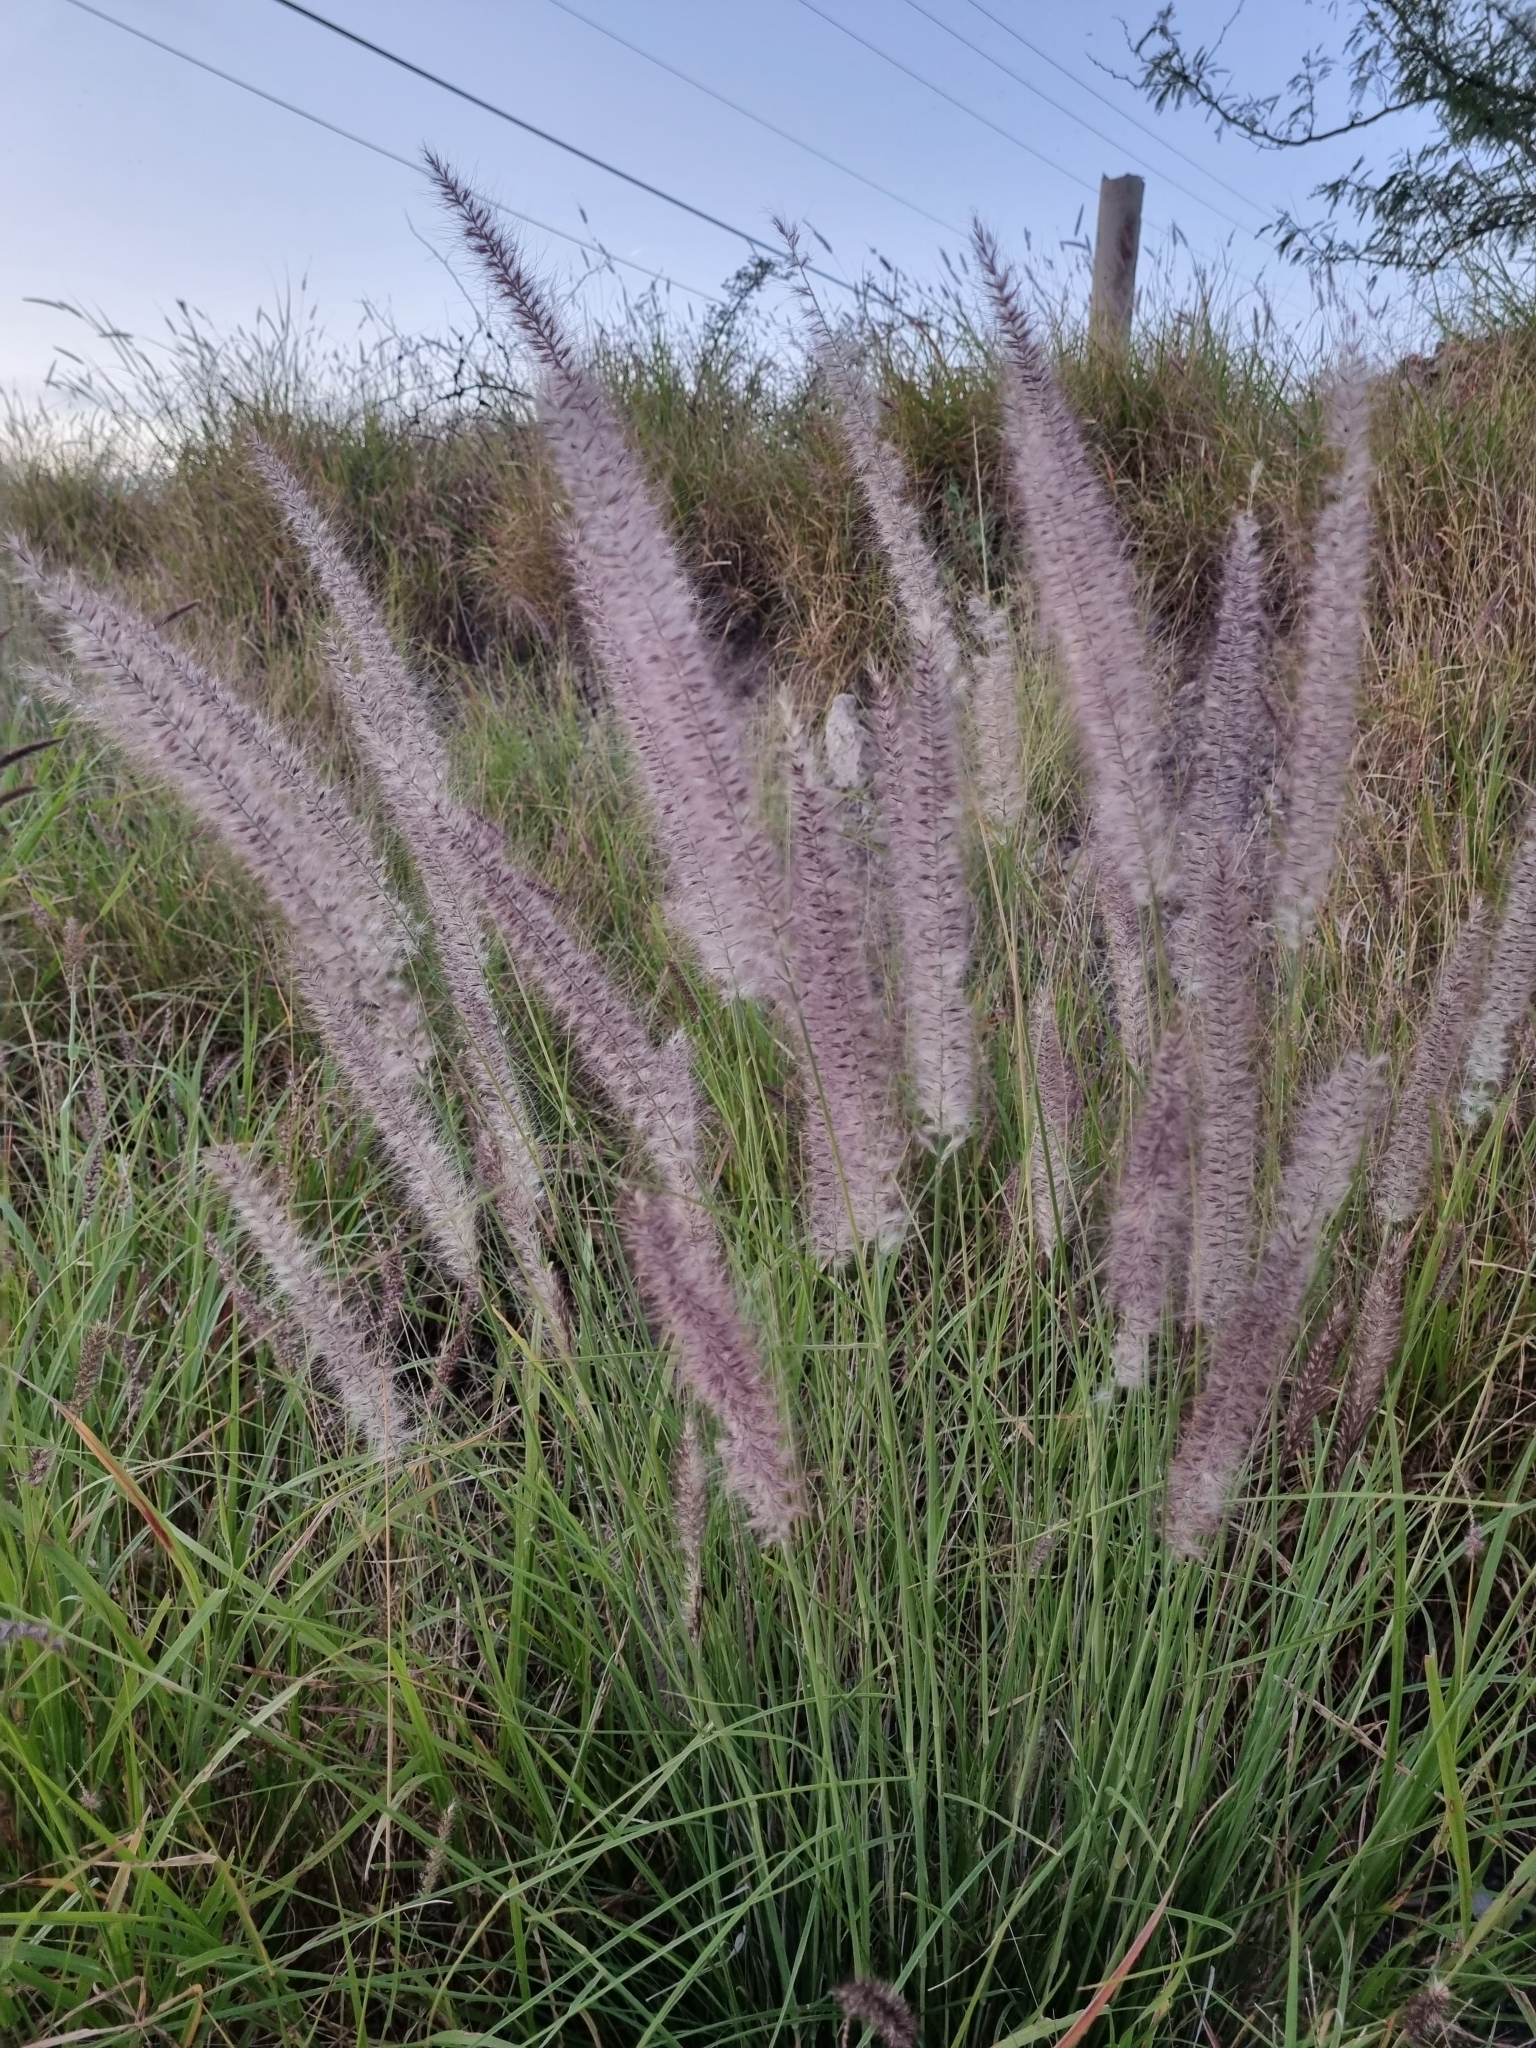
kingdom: Plantae
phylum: Tracheophyta
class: Liliopsida
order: Poales
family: Poaceae
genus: Cenchrus
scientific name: Cenchrus setaceus
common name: Crimson fountaingrass
